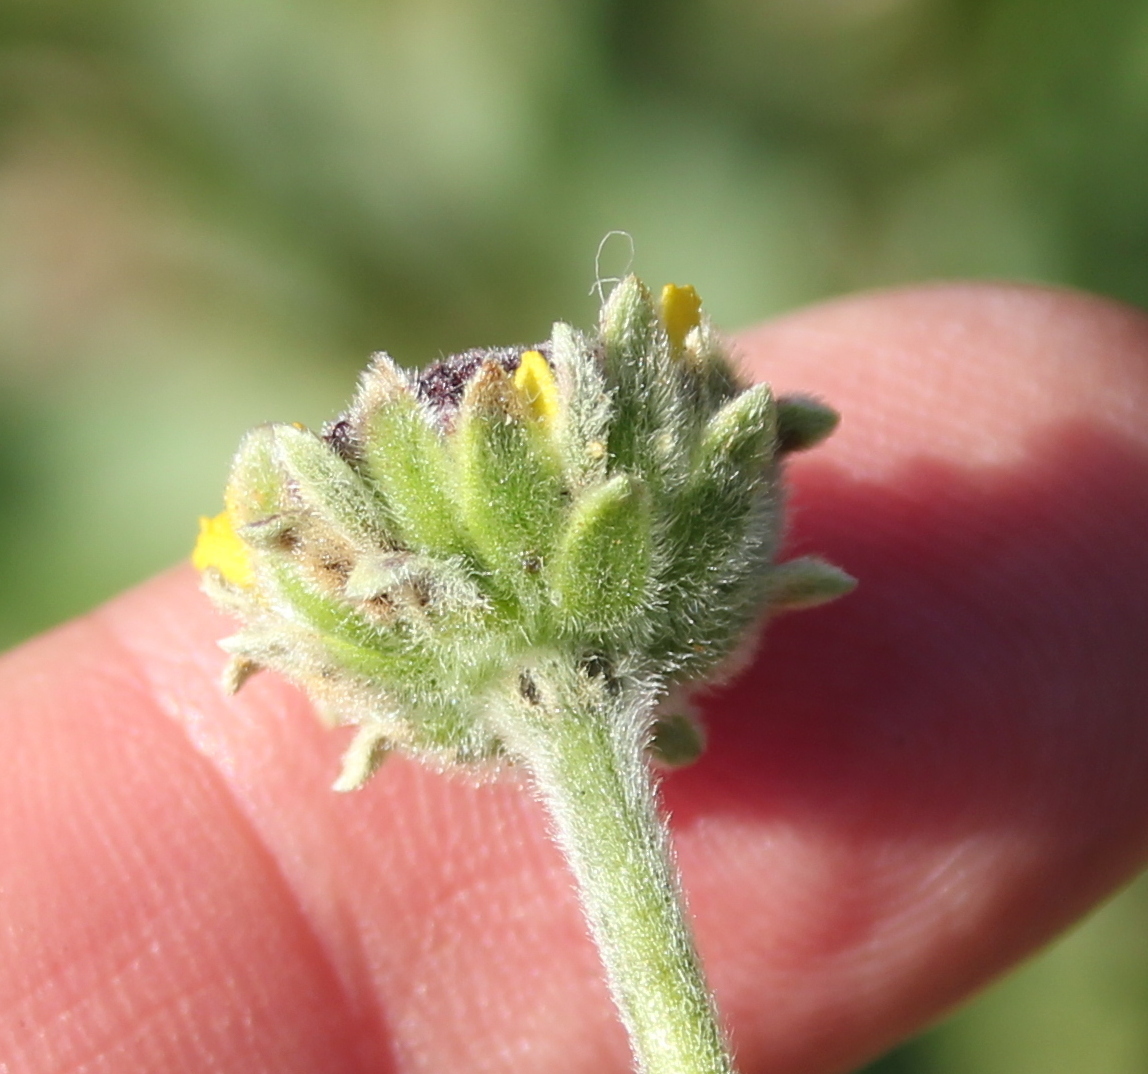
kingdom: Plantae
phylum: Tracheophyta
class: Magnoliopsida
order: Asterales
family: Asteraceae
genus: Encelia
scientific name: Encelia californica
